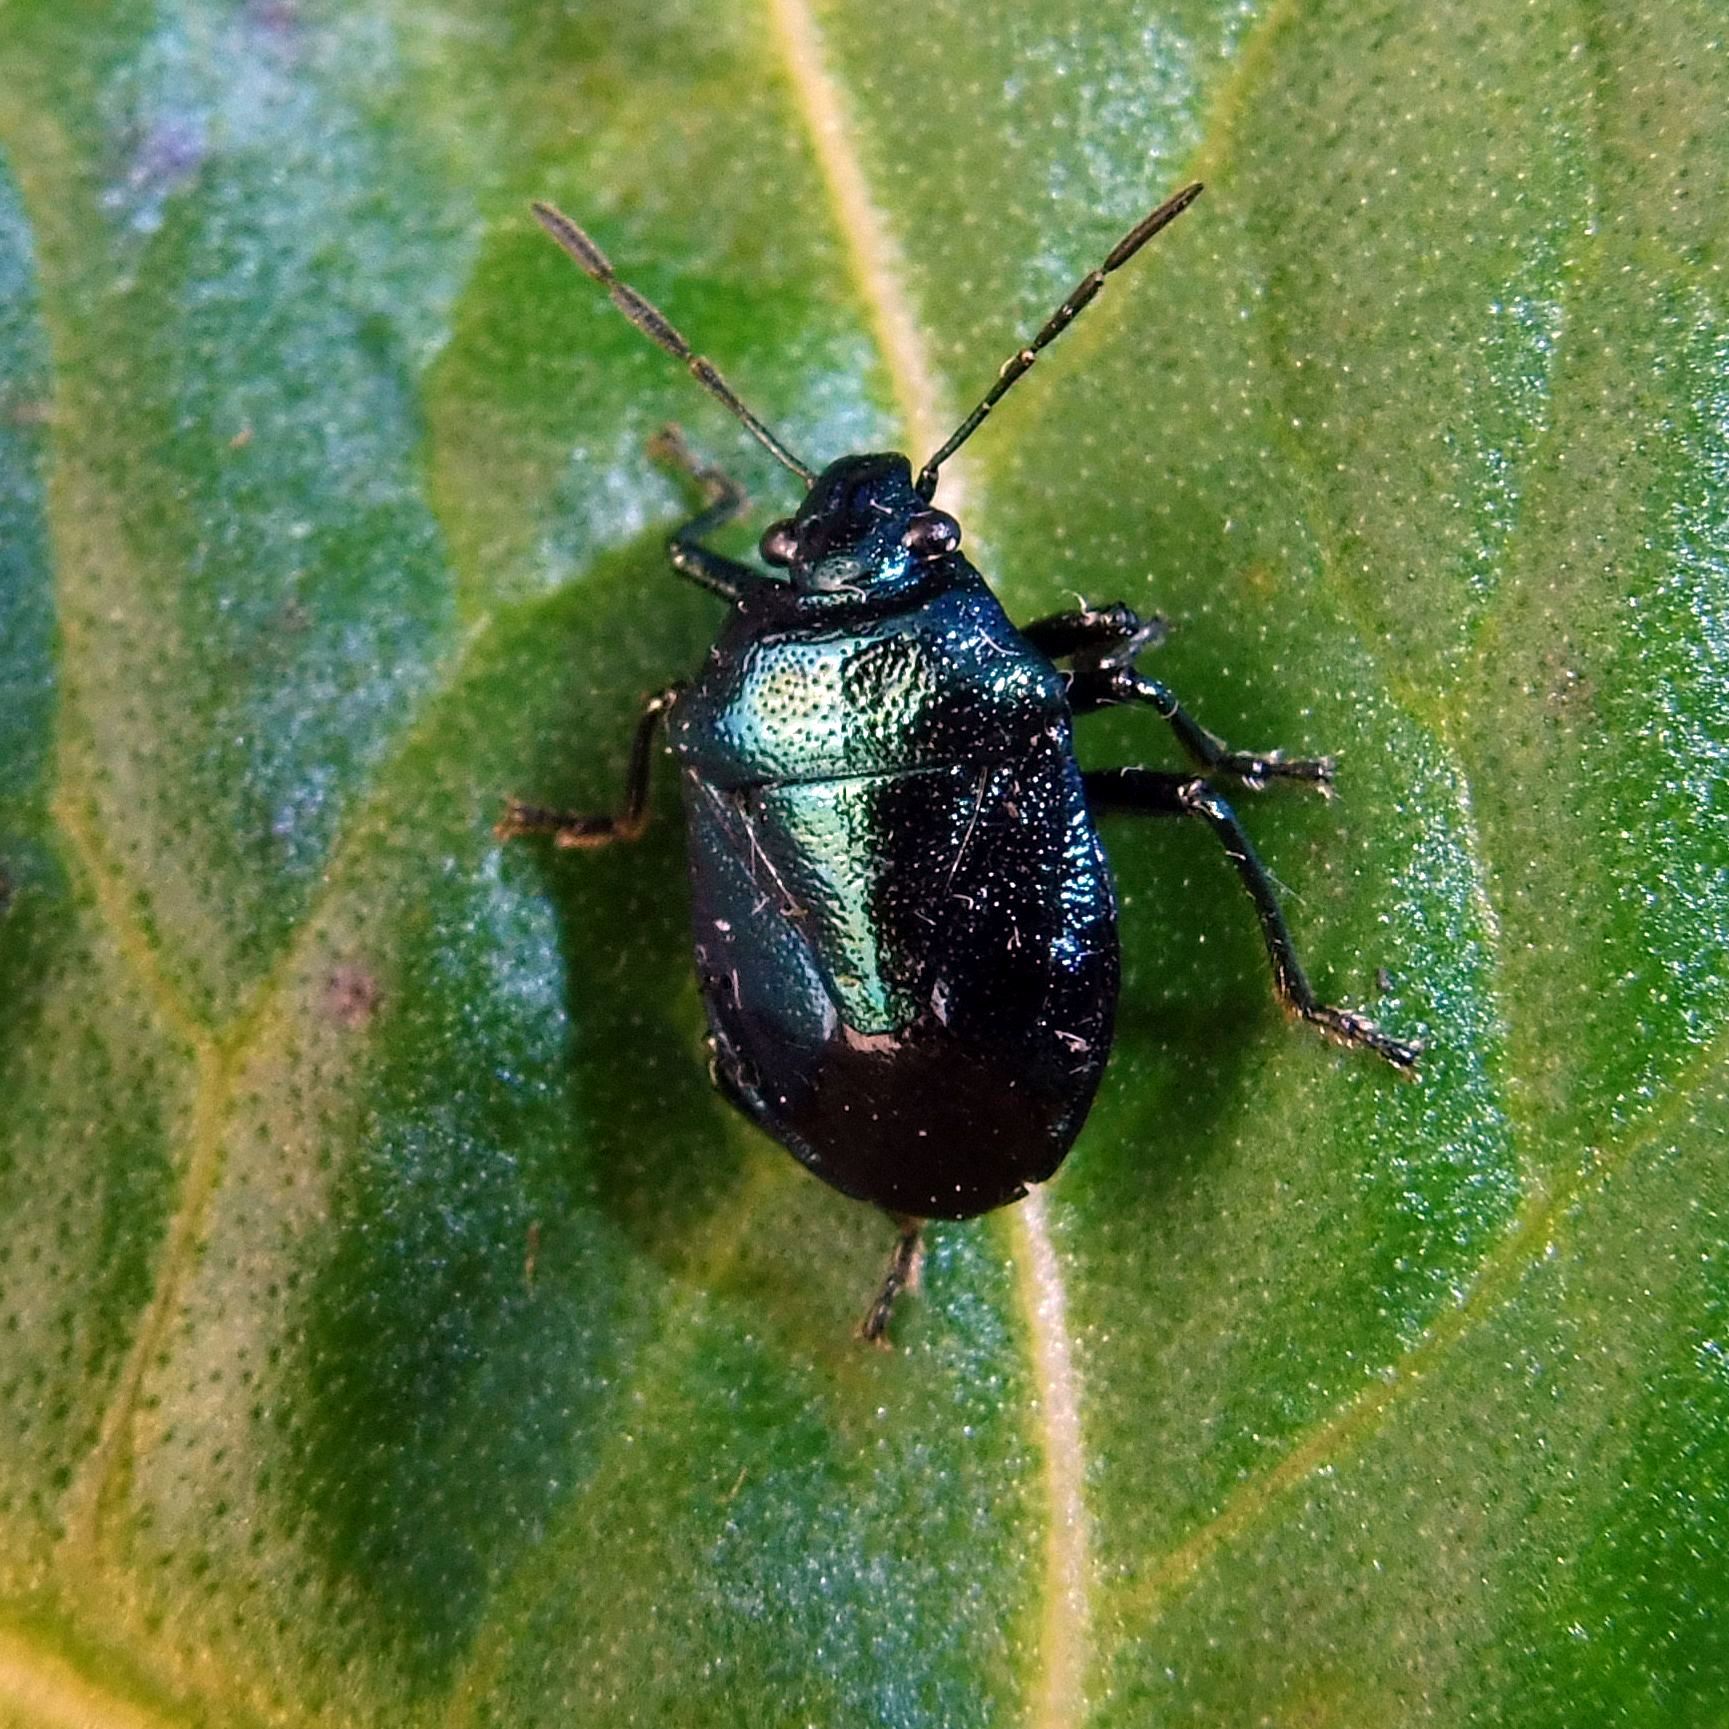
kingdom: Animalia
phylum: Arthropoda
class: Insecta
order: Hemiptera
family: Pentatomidae
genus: Zicrona
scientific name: Zicrona caerulea
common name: Blue shieldbug
